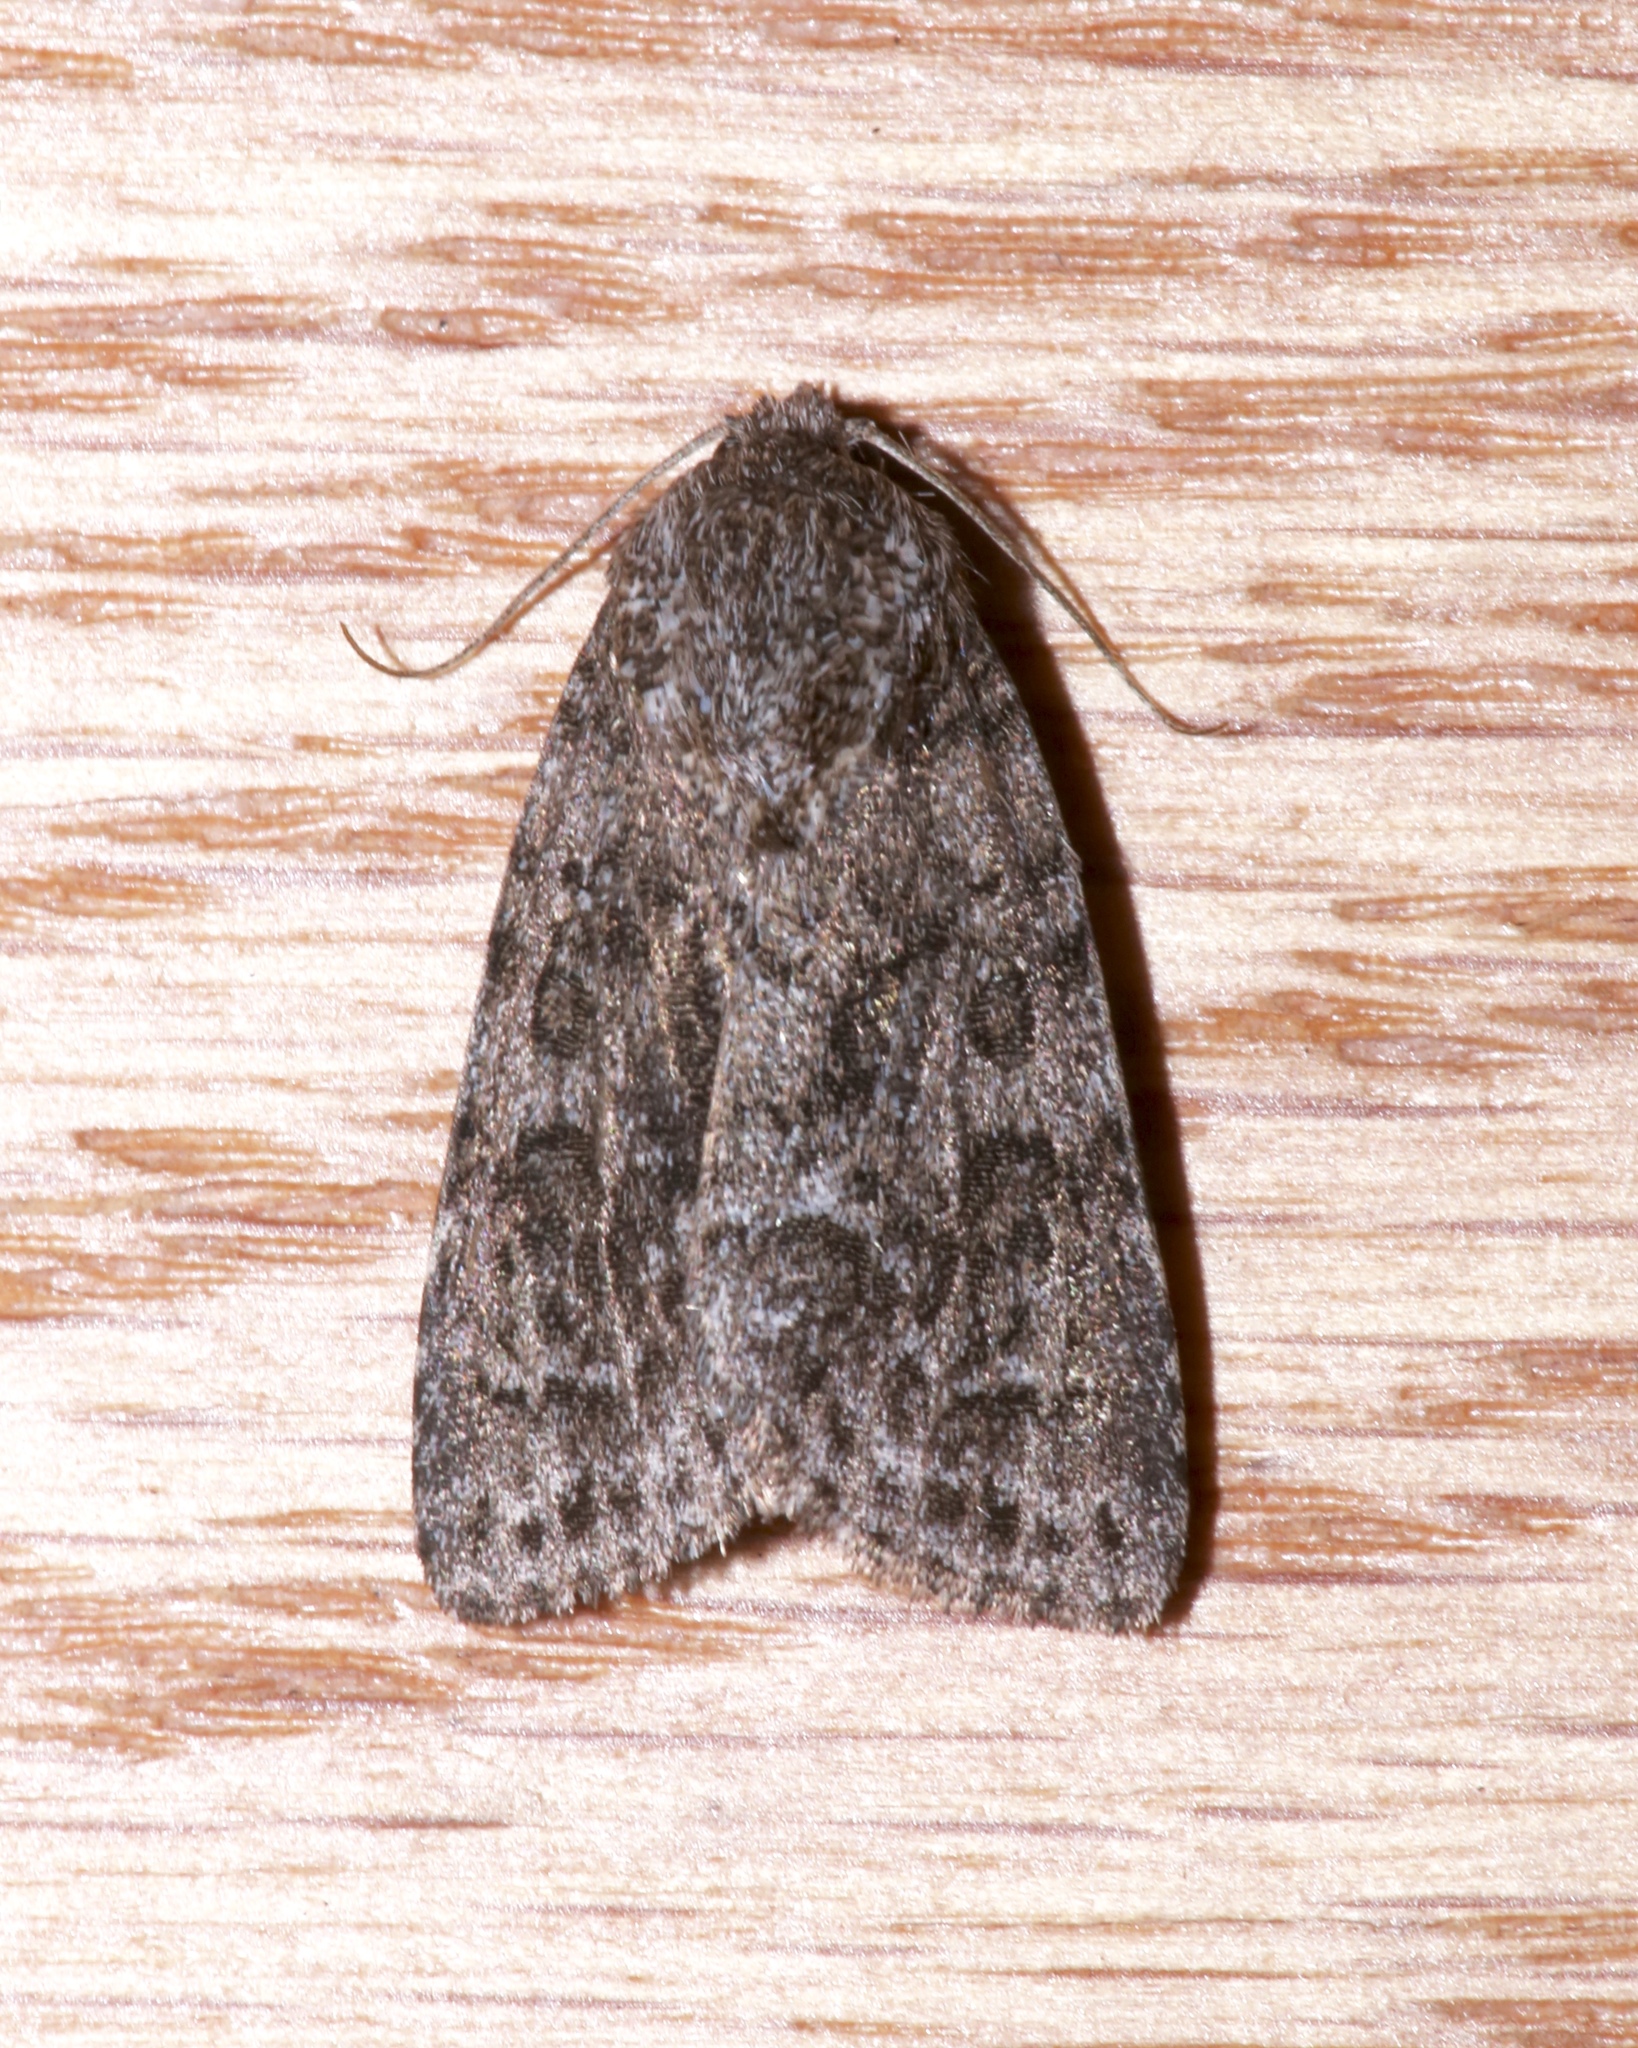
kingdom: Animalia
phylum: Arthropoda
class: Insecta
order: Lepidoptera
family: Noctuidae
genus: Acronicta
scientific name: Acronicta sperata
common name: Hopeful dagger
